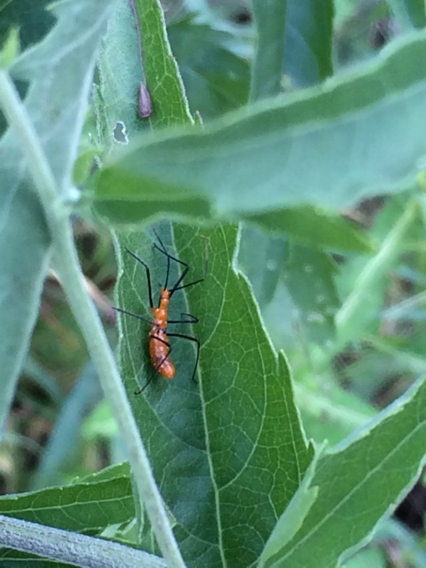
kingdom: Animalia
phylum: Arthropoda
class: Insecta
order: Hemiptera
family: Reduviidae
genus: Zelus
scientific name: Zelus longipes
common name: Milkweed assassin bug
